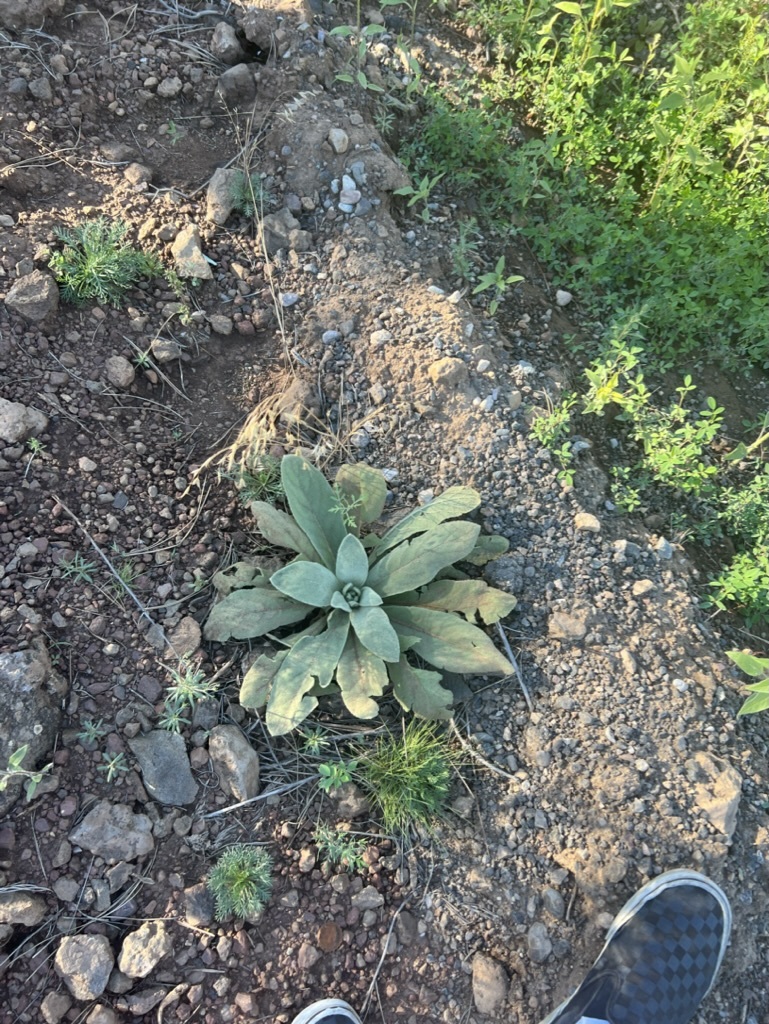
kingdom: Plantae
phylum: Tracheophyta
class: Magnoliopsida
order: Lamiales
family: Scrophulariaceae
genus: Verbascum
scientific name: Verbascum thapsus
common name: Common mullein
